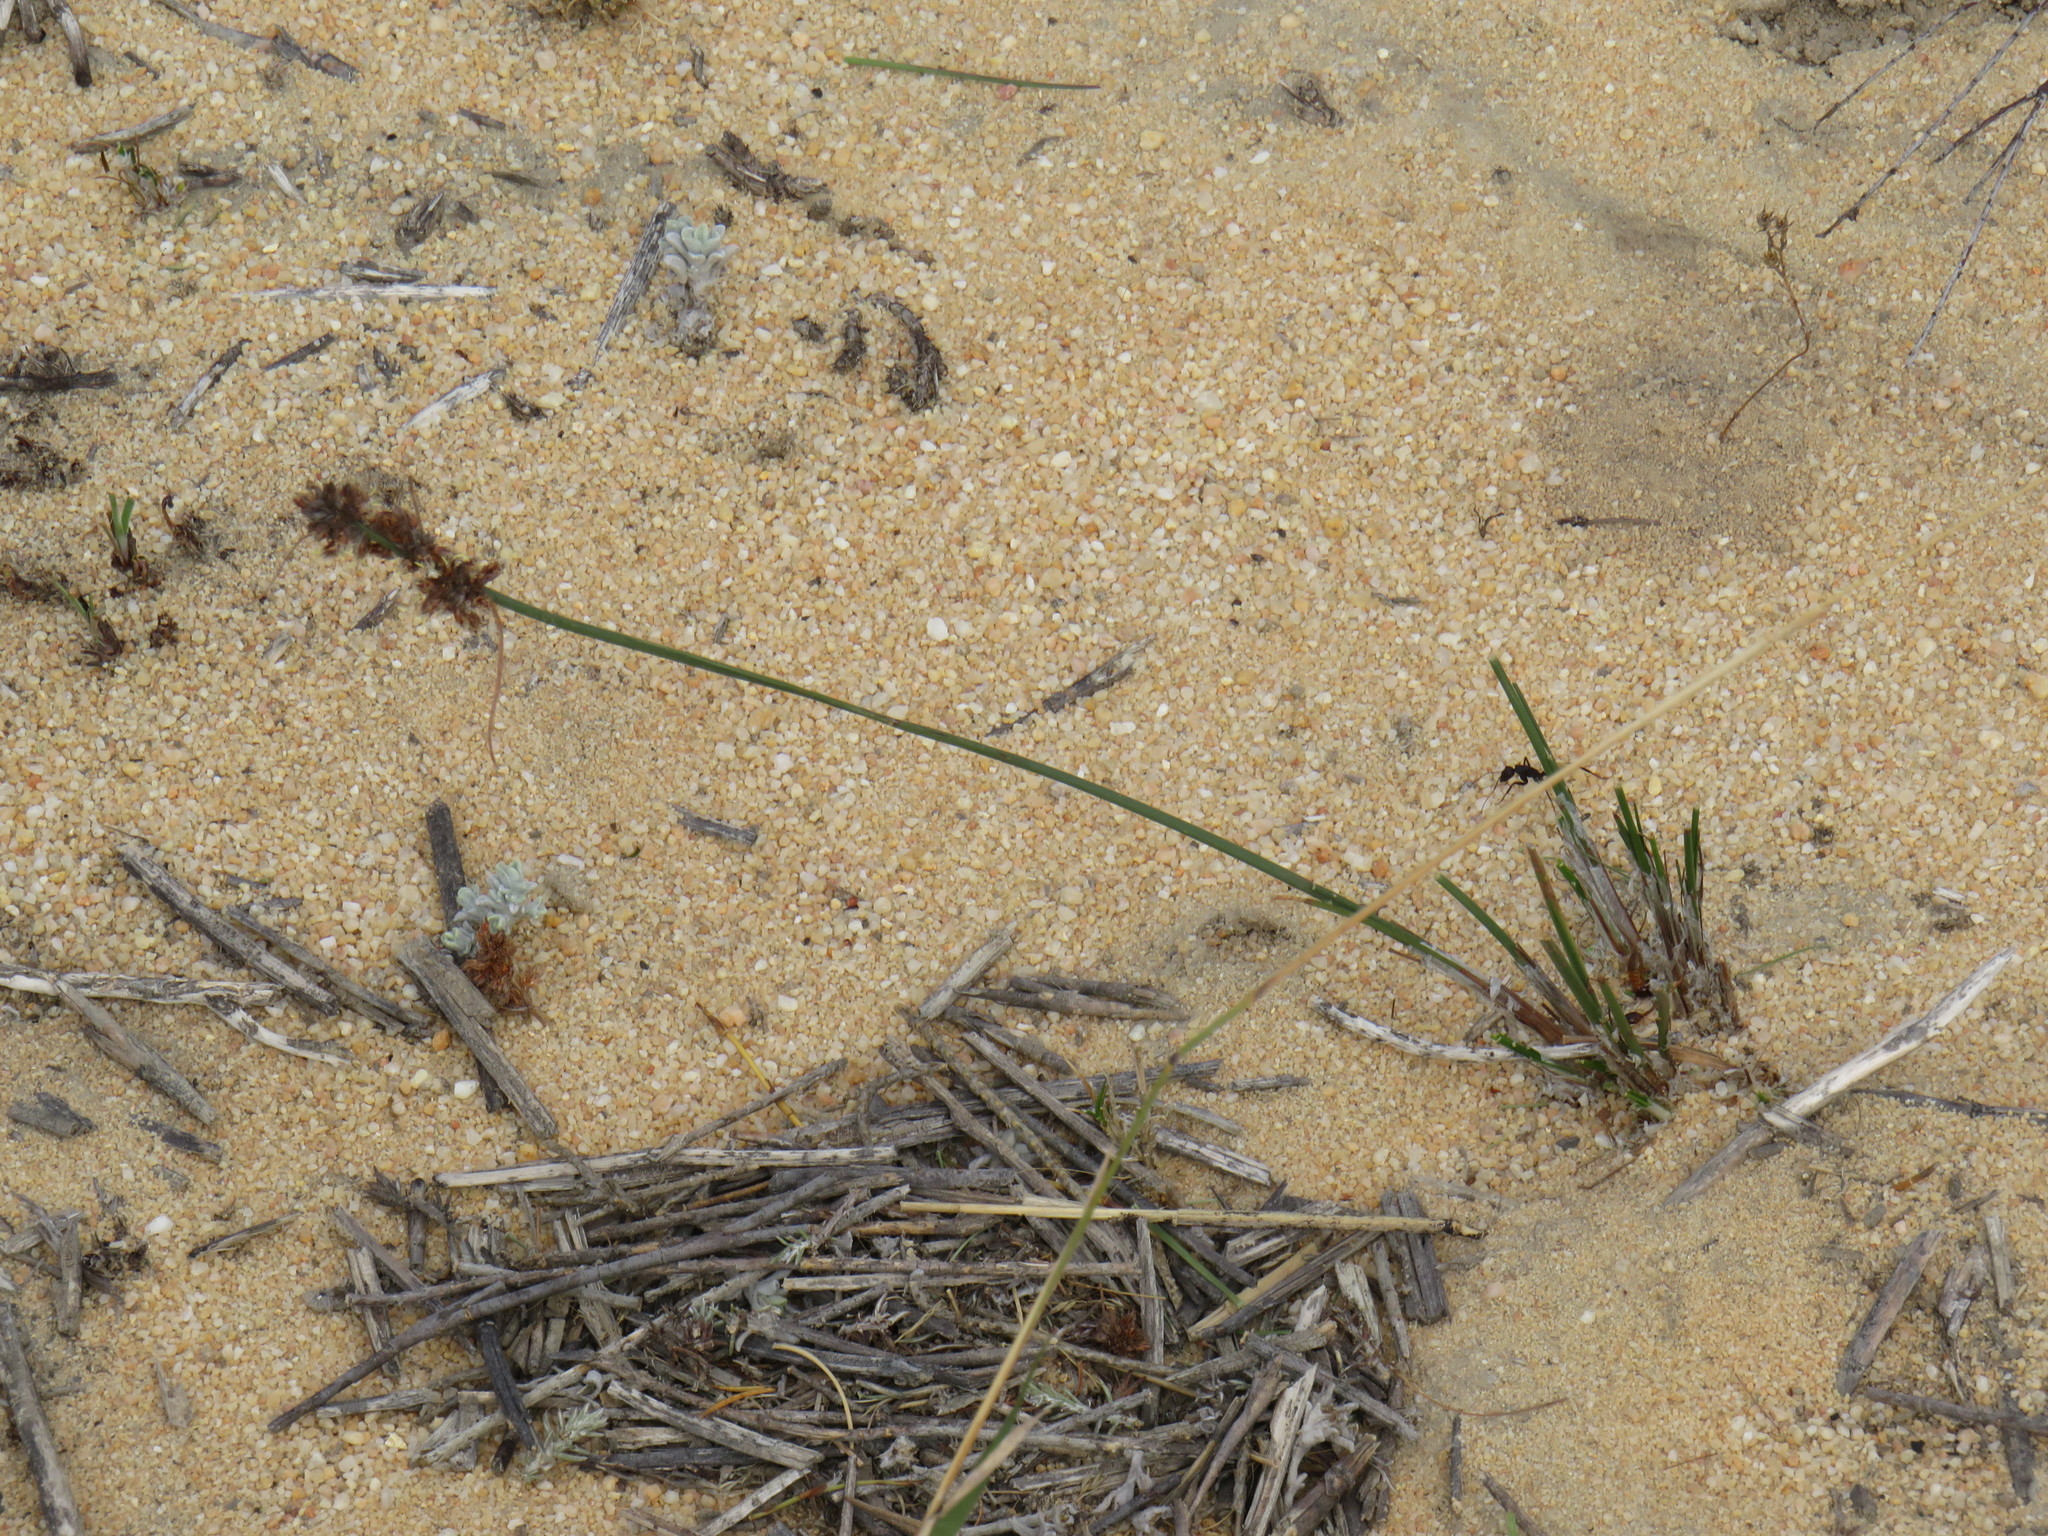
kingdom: Plantae
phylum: Tracheophyta
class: Liliopsida
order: Poales
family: Cyperaceae
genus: Ficinia
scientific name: Ficinia bulbosa
